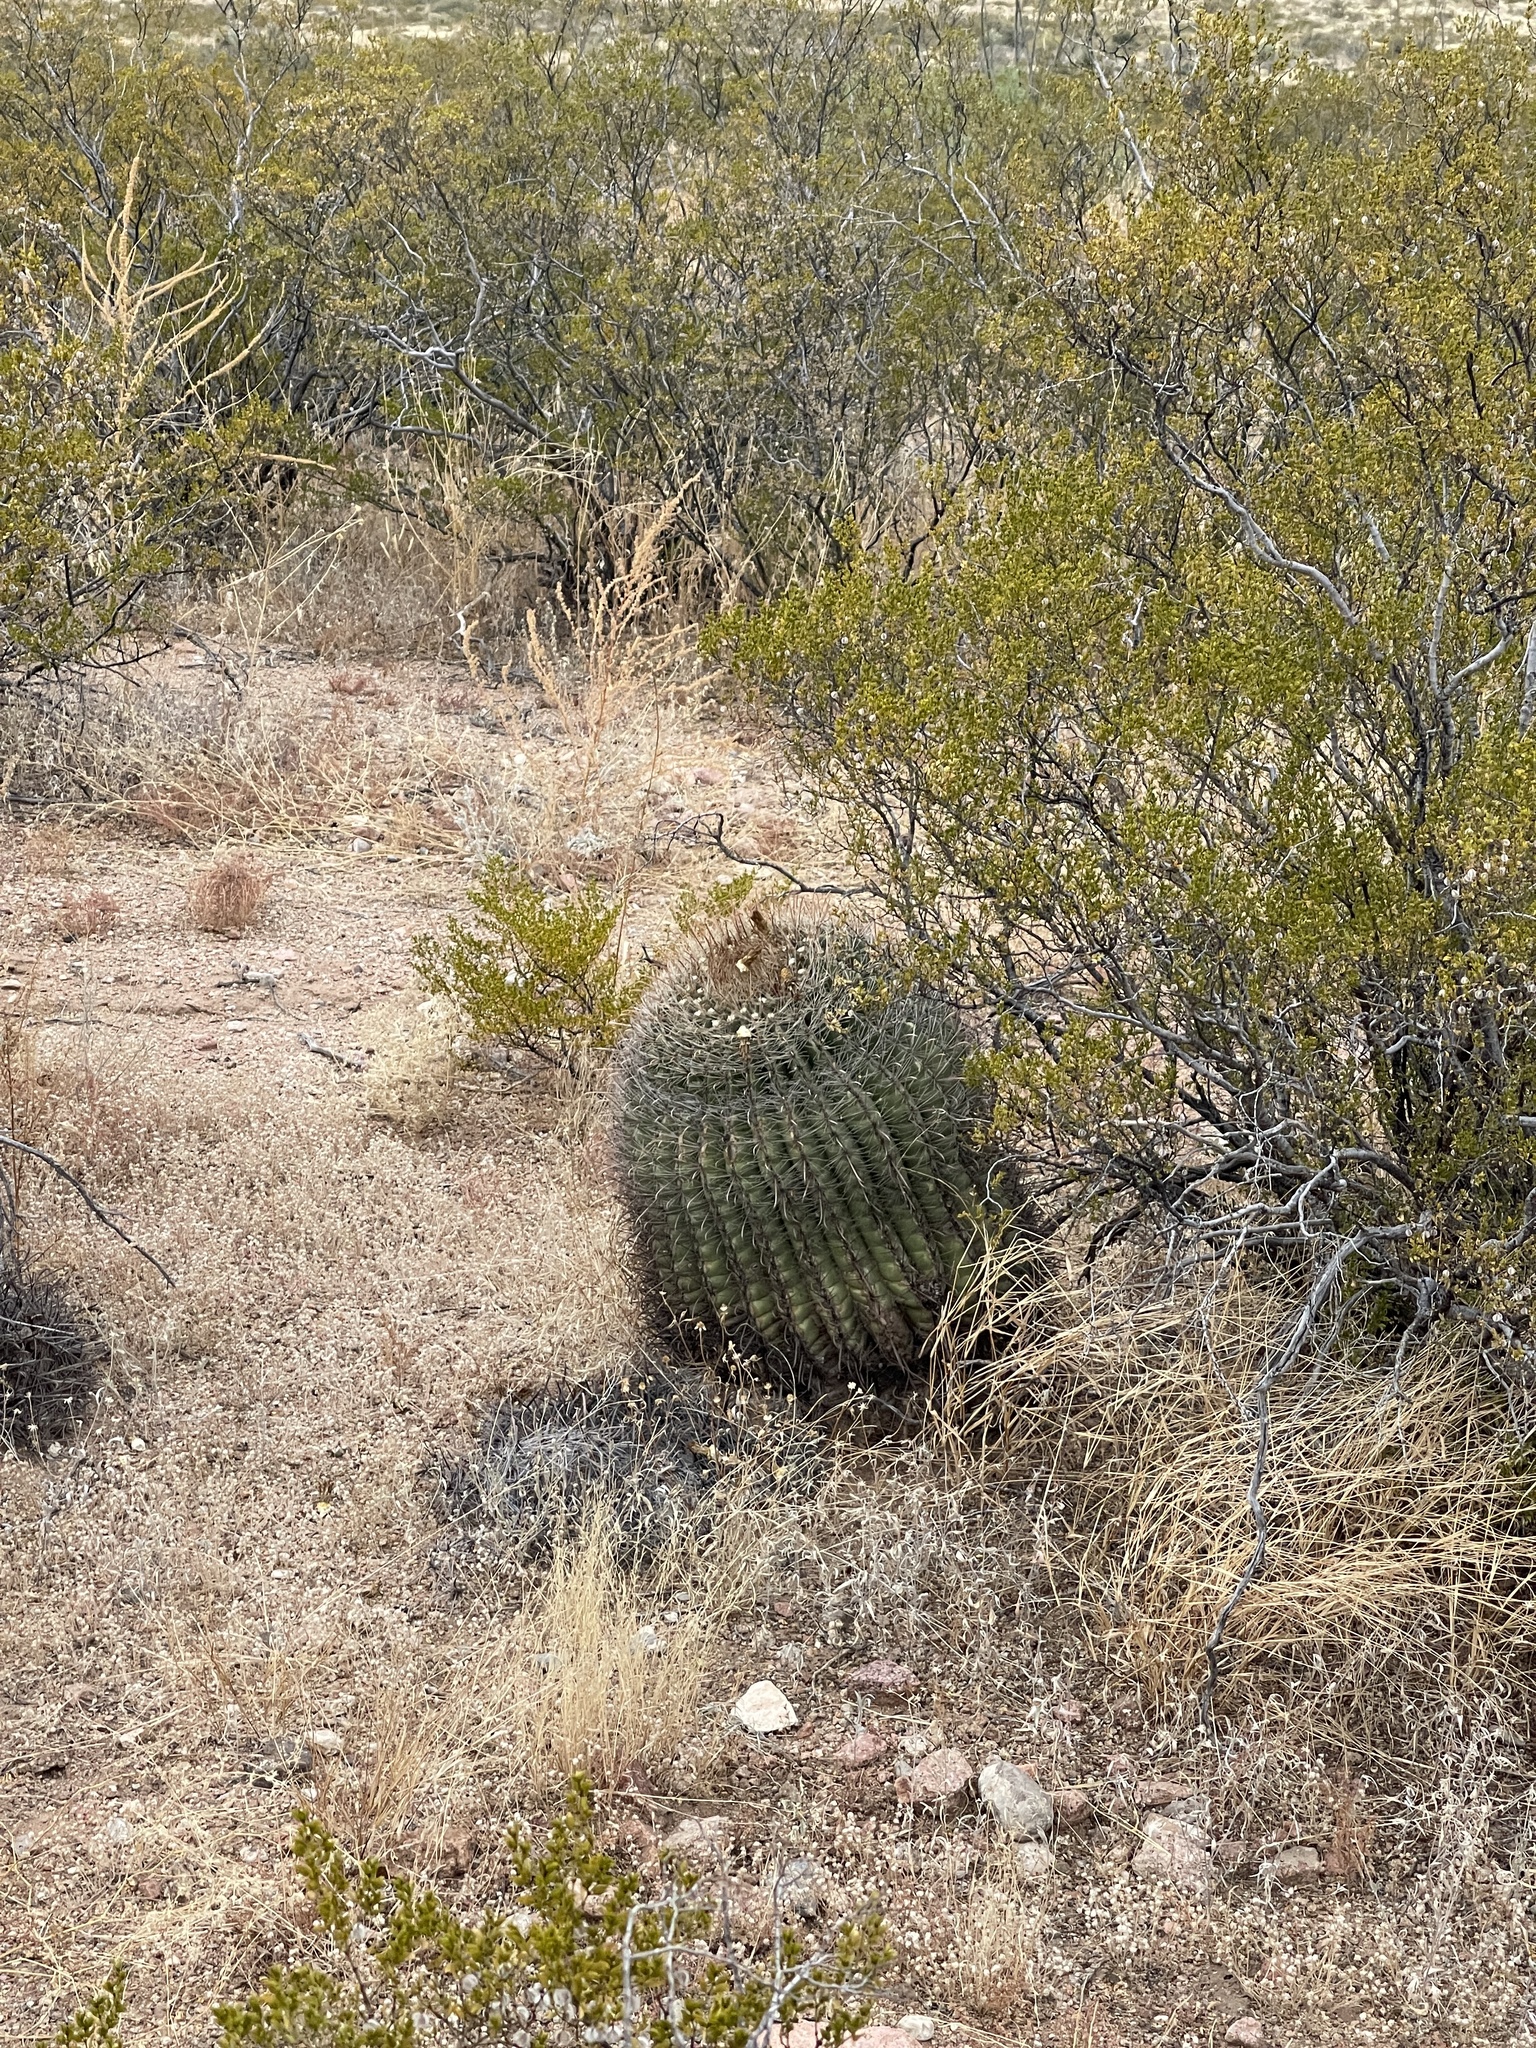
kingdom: Plantae
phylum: Tracheophyta
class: Magnoliopsida
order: Caryophyllales
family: Cactaceae
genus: Ferocactus
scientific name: Ferocactus wislizeni
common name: Candy barrel cactus
